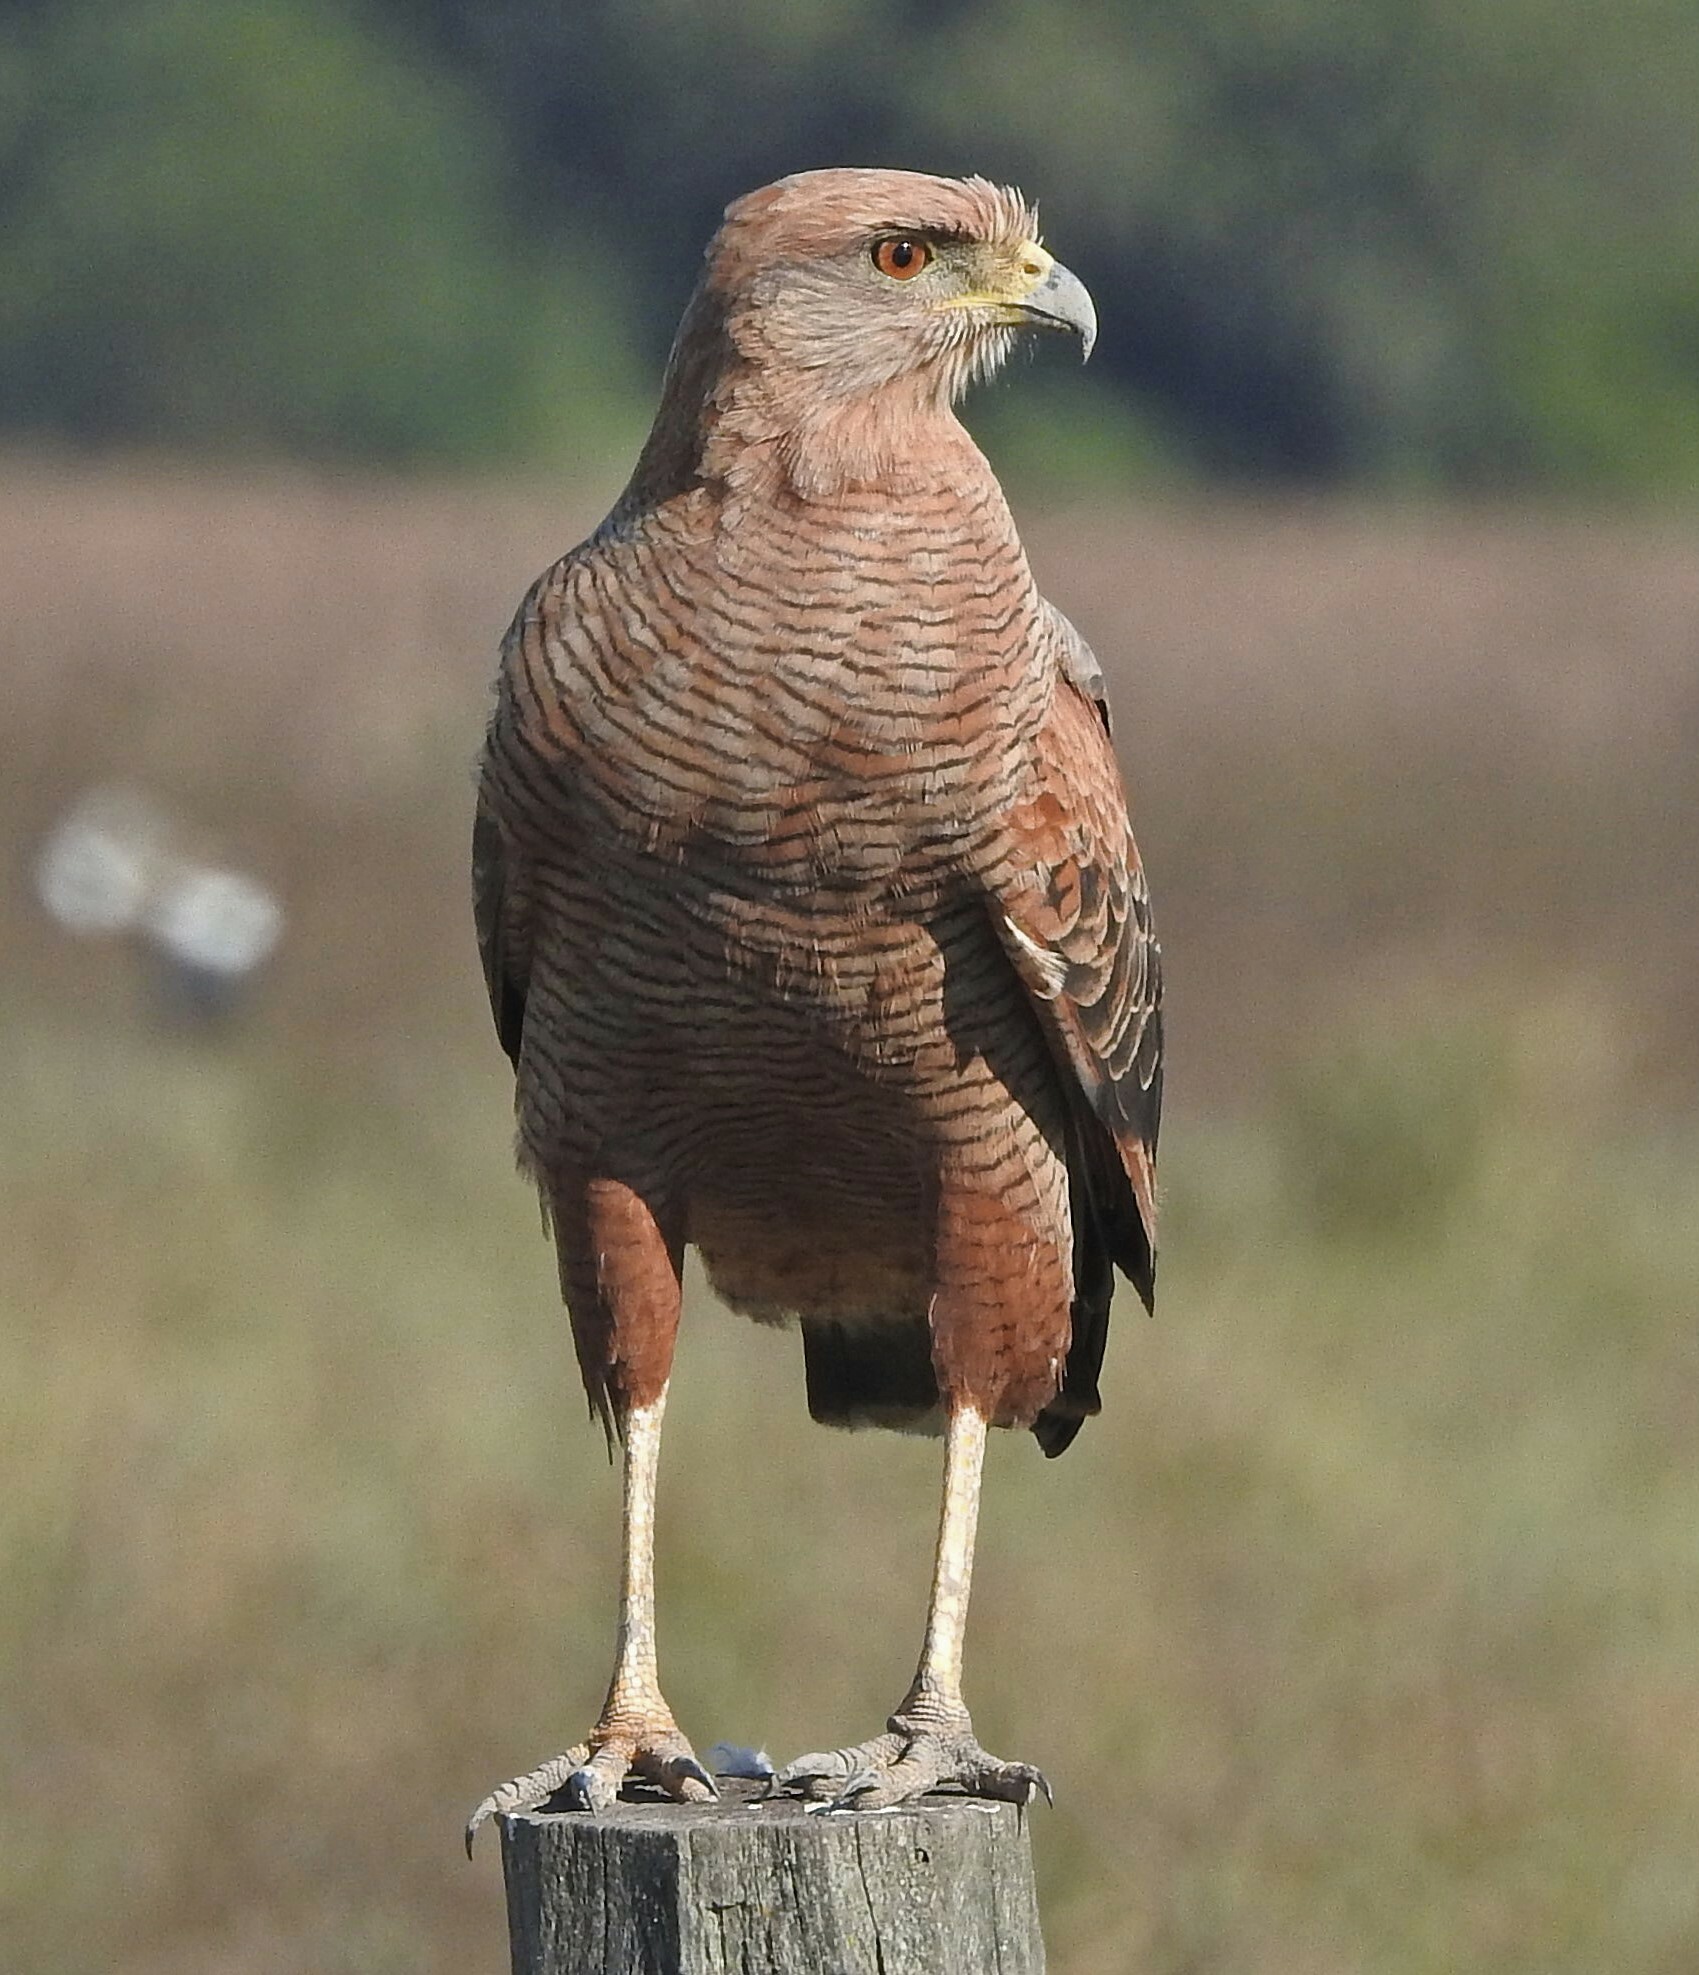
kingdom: Animalia
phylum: Chordata
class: Aves
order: Accipitriformes
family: Accipitridae
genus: Buteogallus
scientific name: Buteogallus meridionalis
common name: Savanna hawk
